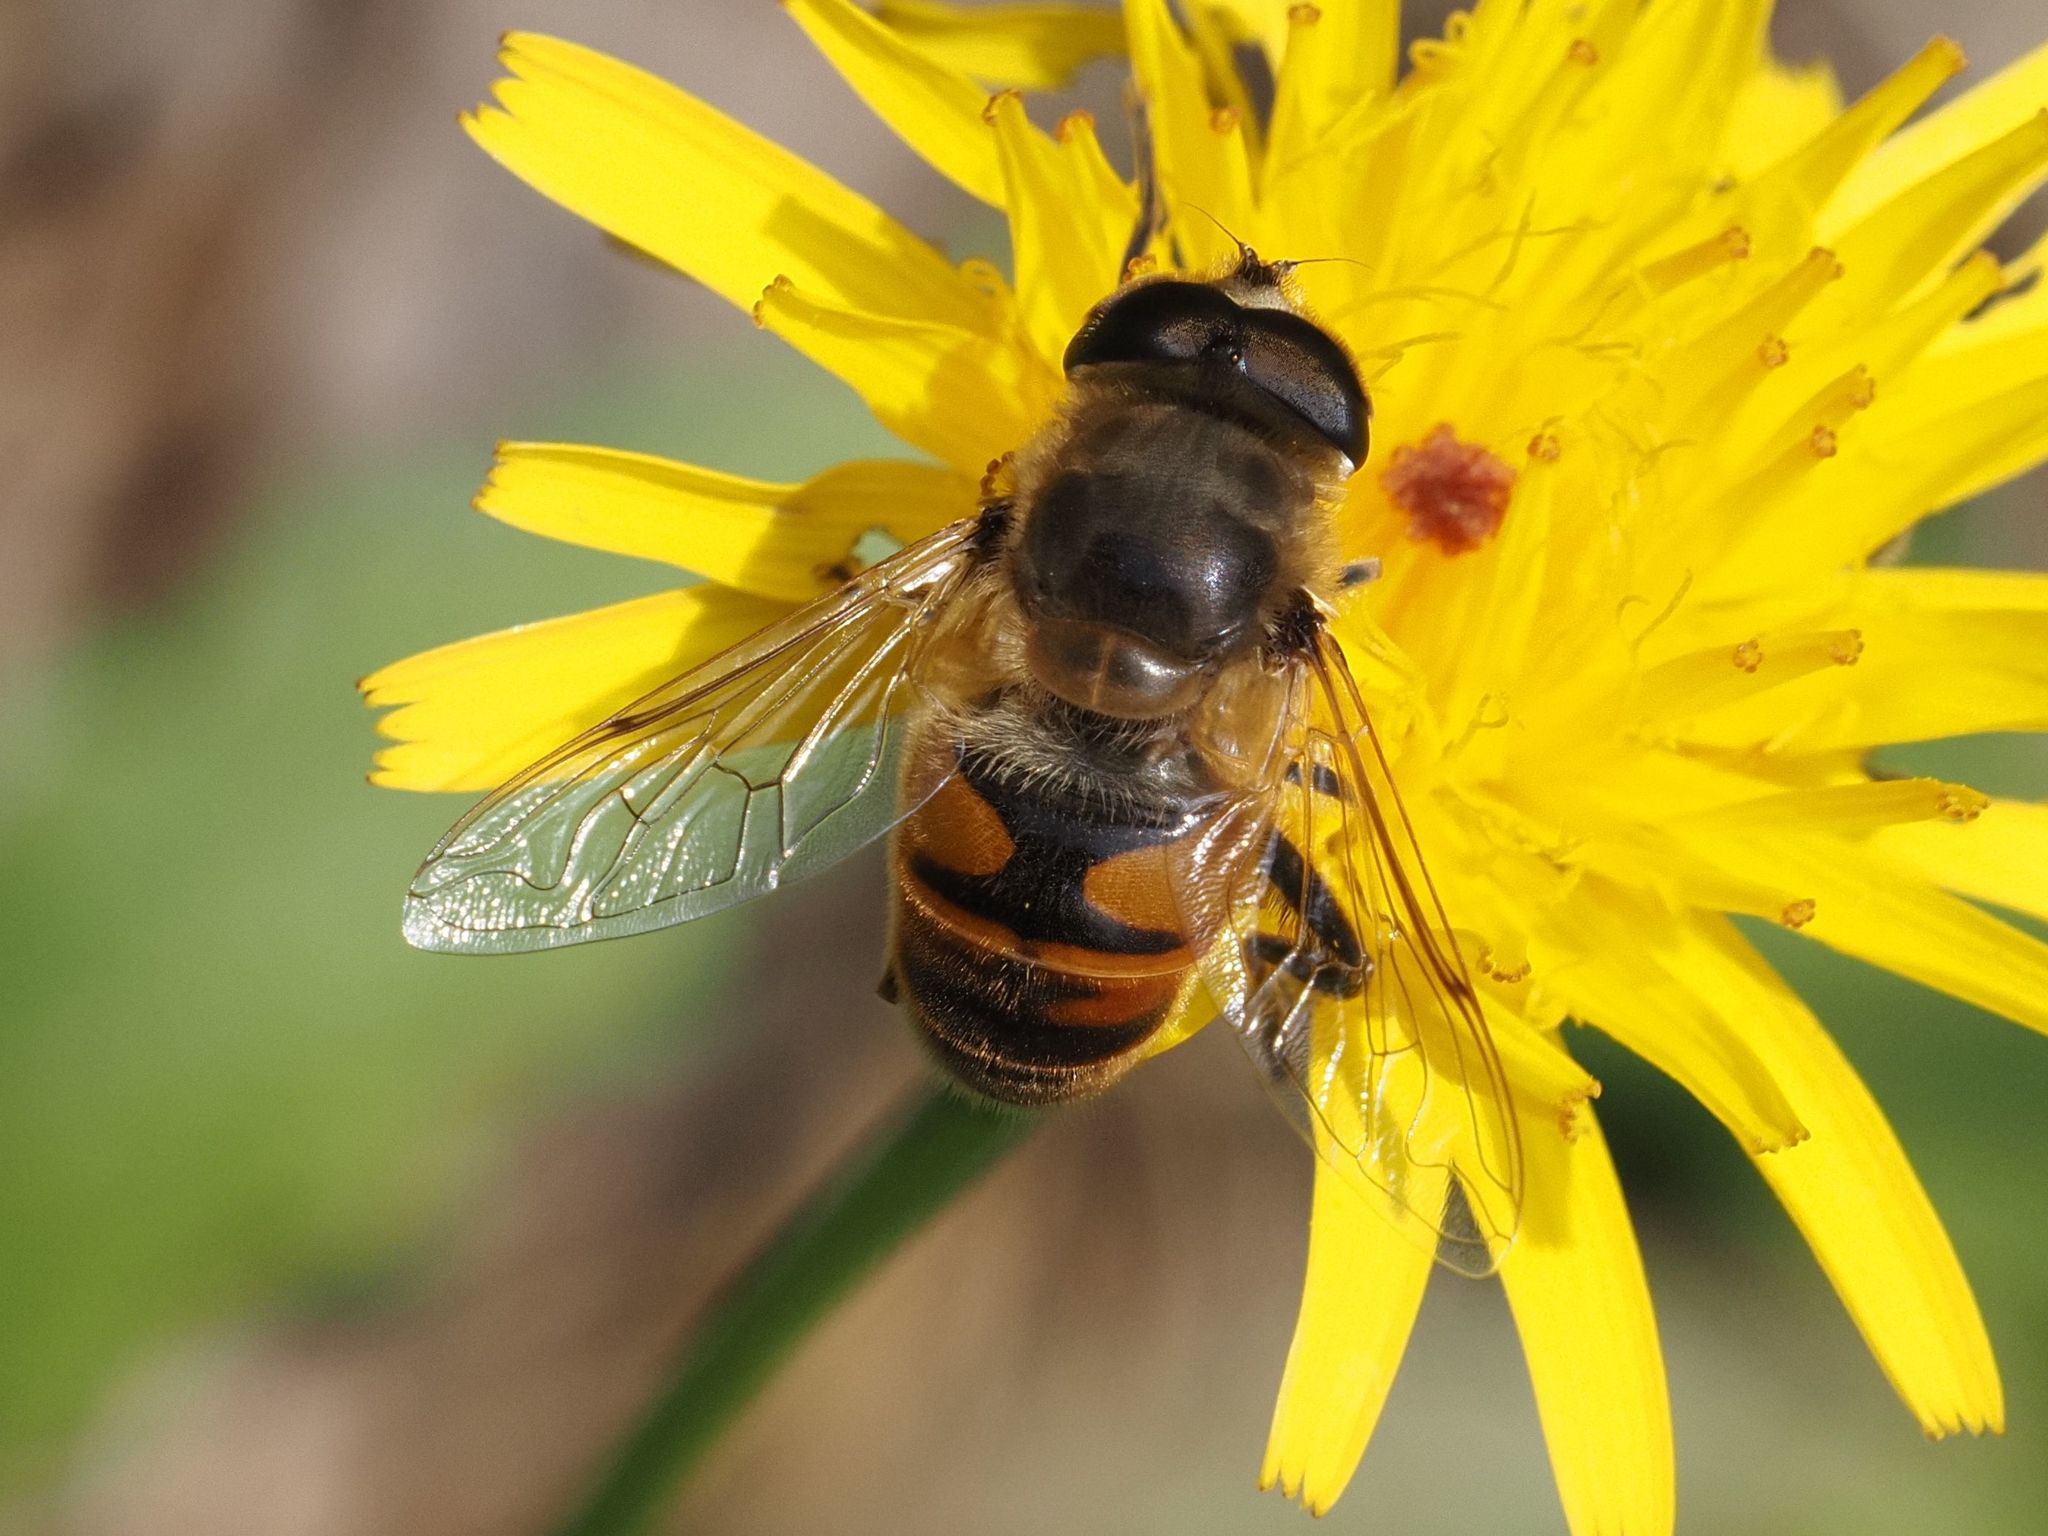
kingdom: Animalia
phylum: Arthropoda
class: Insecta
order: Diptera
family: Syrphidae
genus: Eristalis
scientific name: Eristalis tenax
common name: Drone fly
